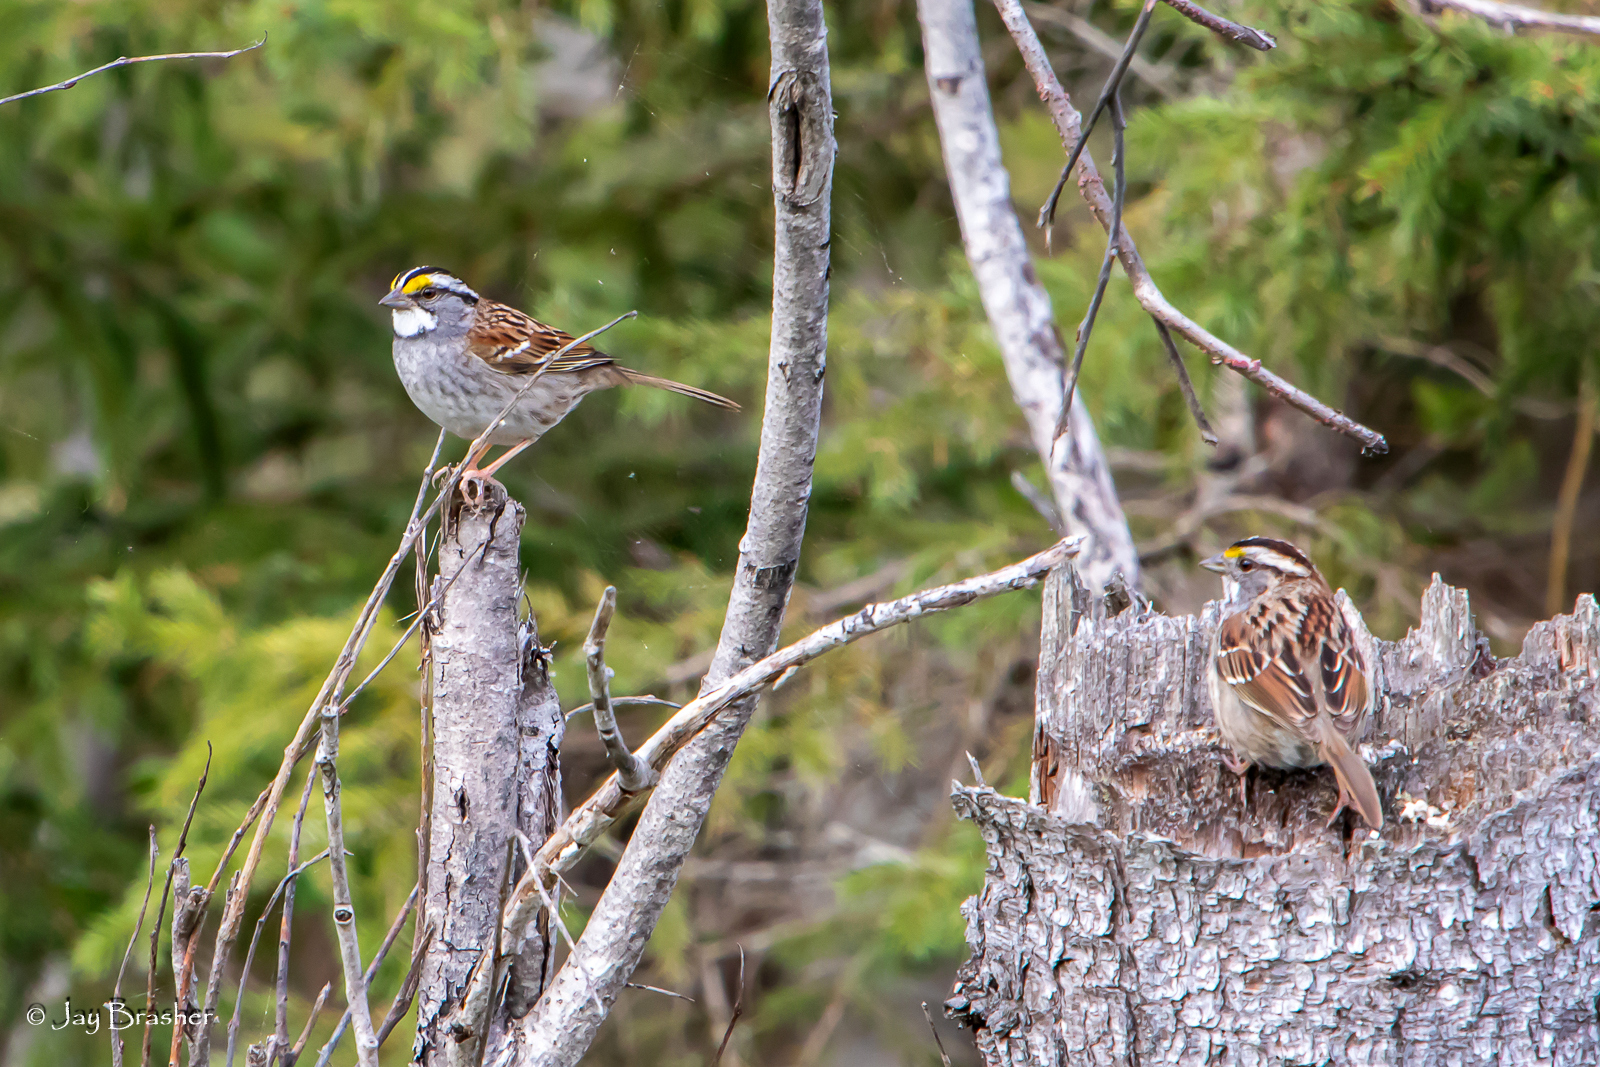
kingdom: Animalia
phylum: Chordata
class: Aves
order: Passeriformes
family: Passerellidae
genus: Zonotrichia
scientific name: Zonotrichia albicollis
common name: White-throated sparrow
